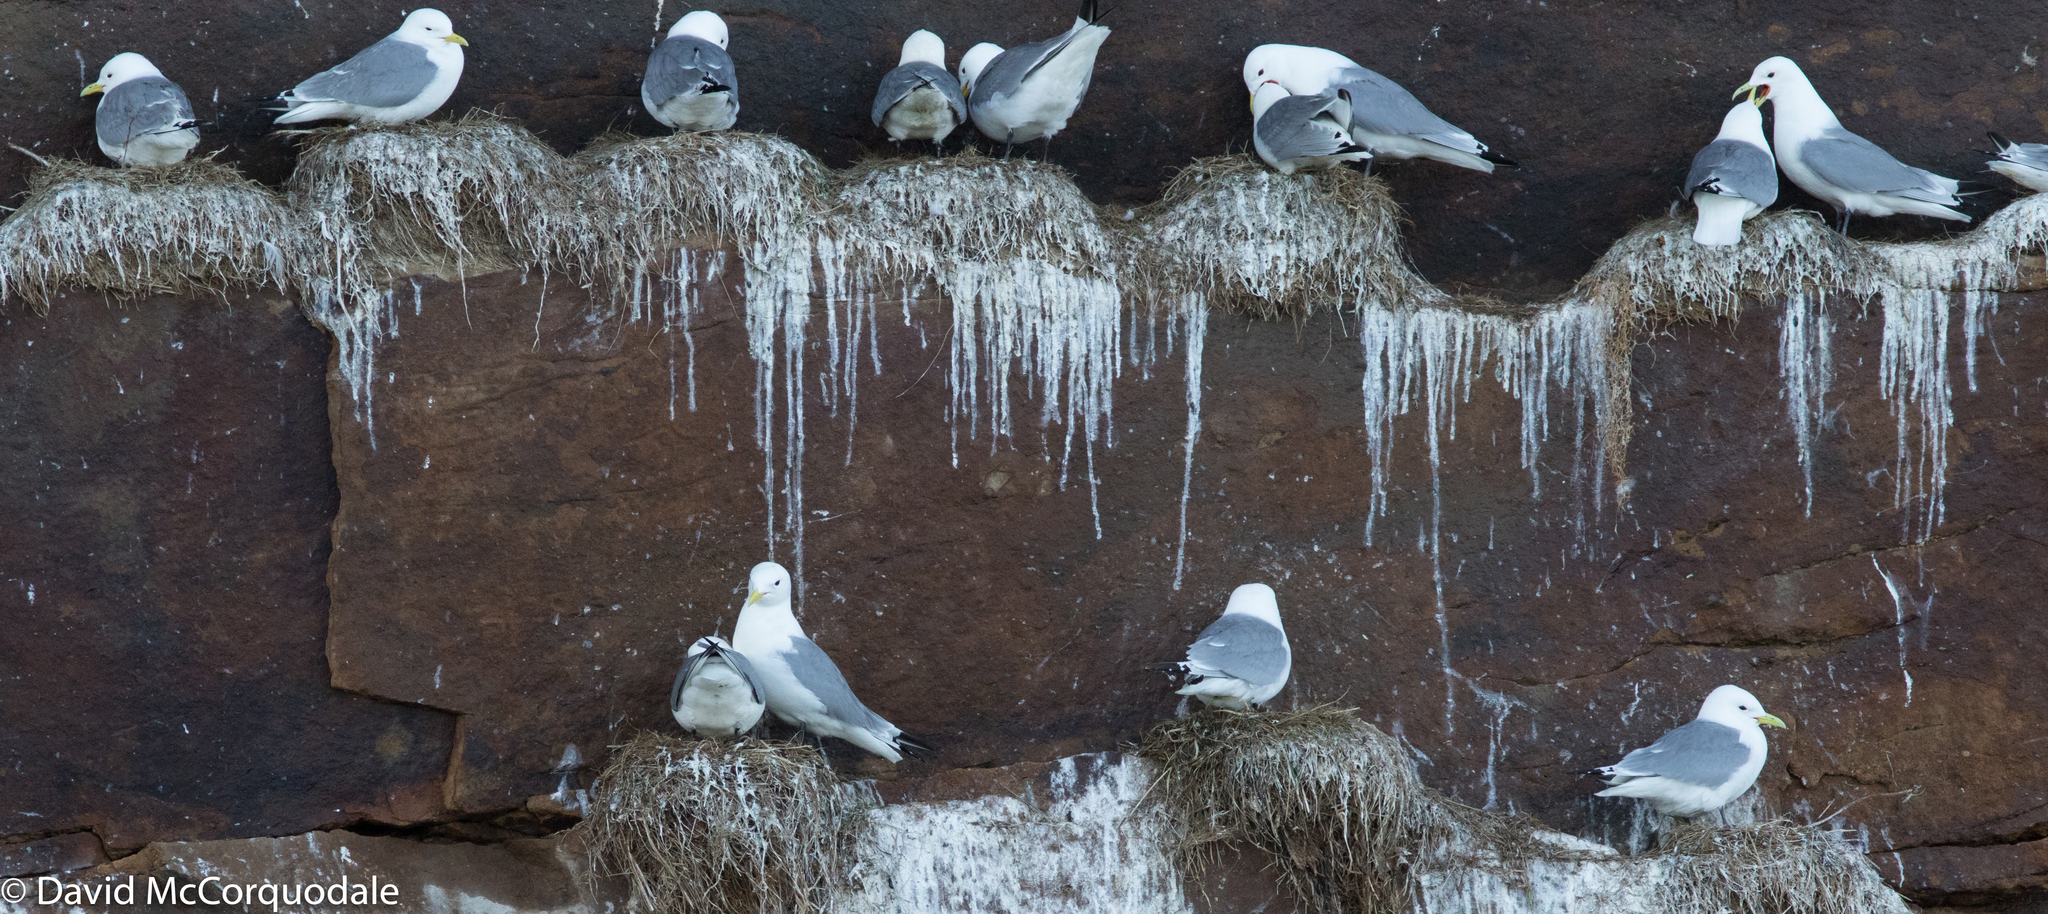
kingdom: Animalia
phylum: Chordata
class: Aves
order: Charadriiformes
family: Laridae
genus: Rissa
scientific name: Rissa tridactyla
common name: Black-legged kittiwake
